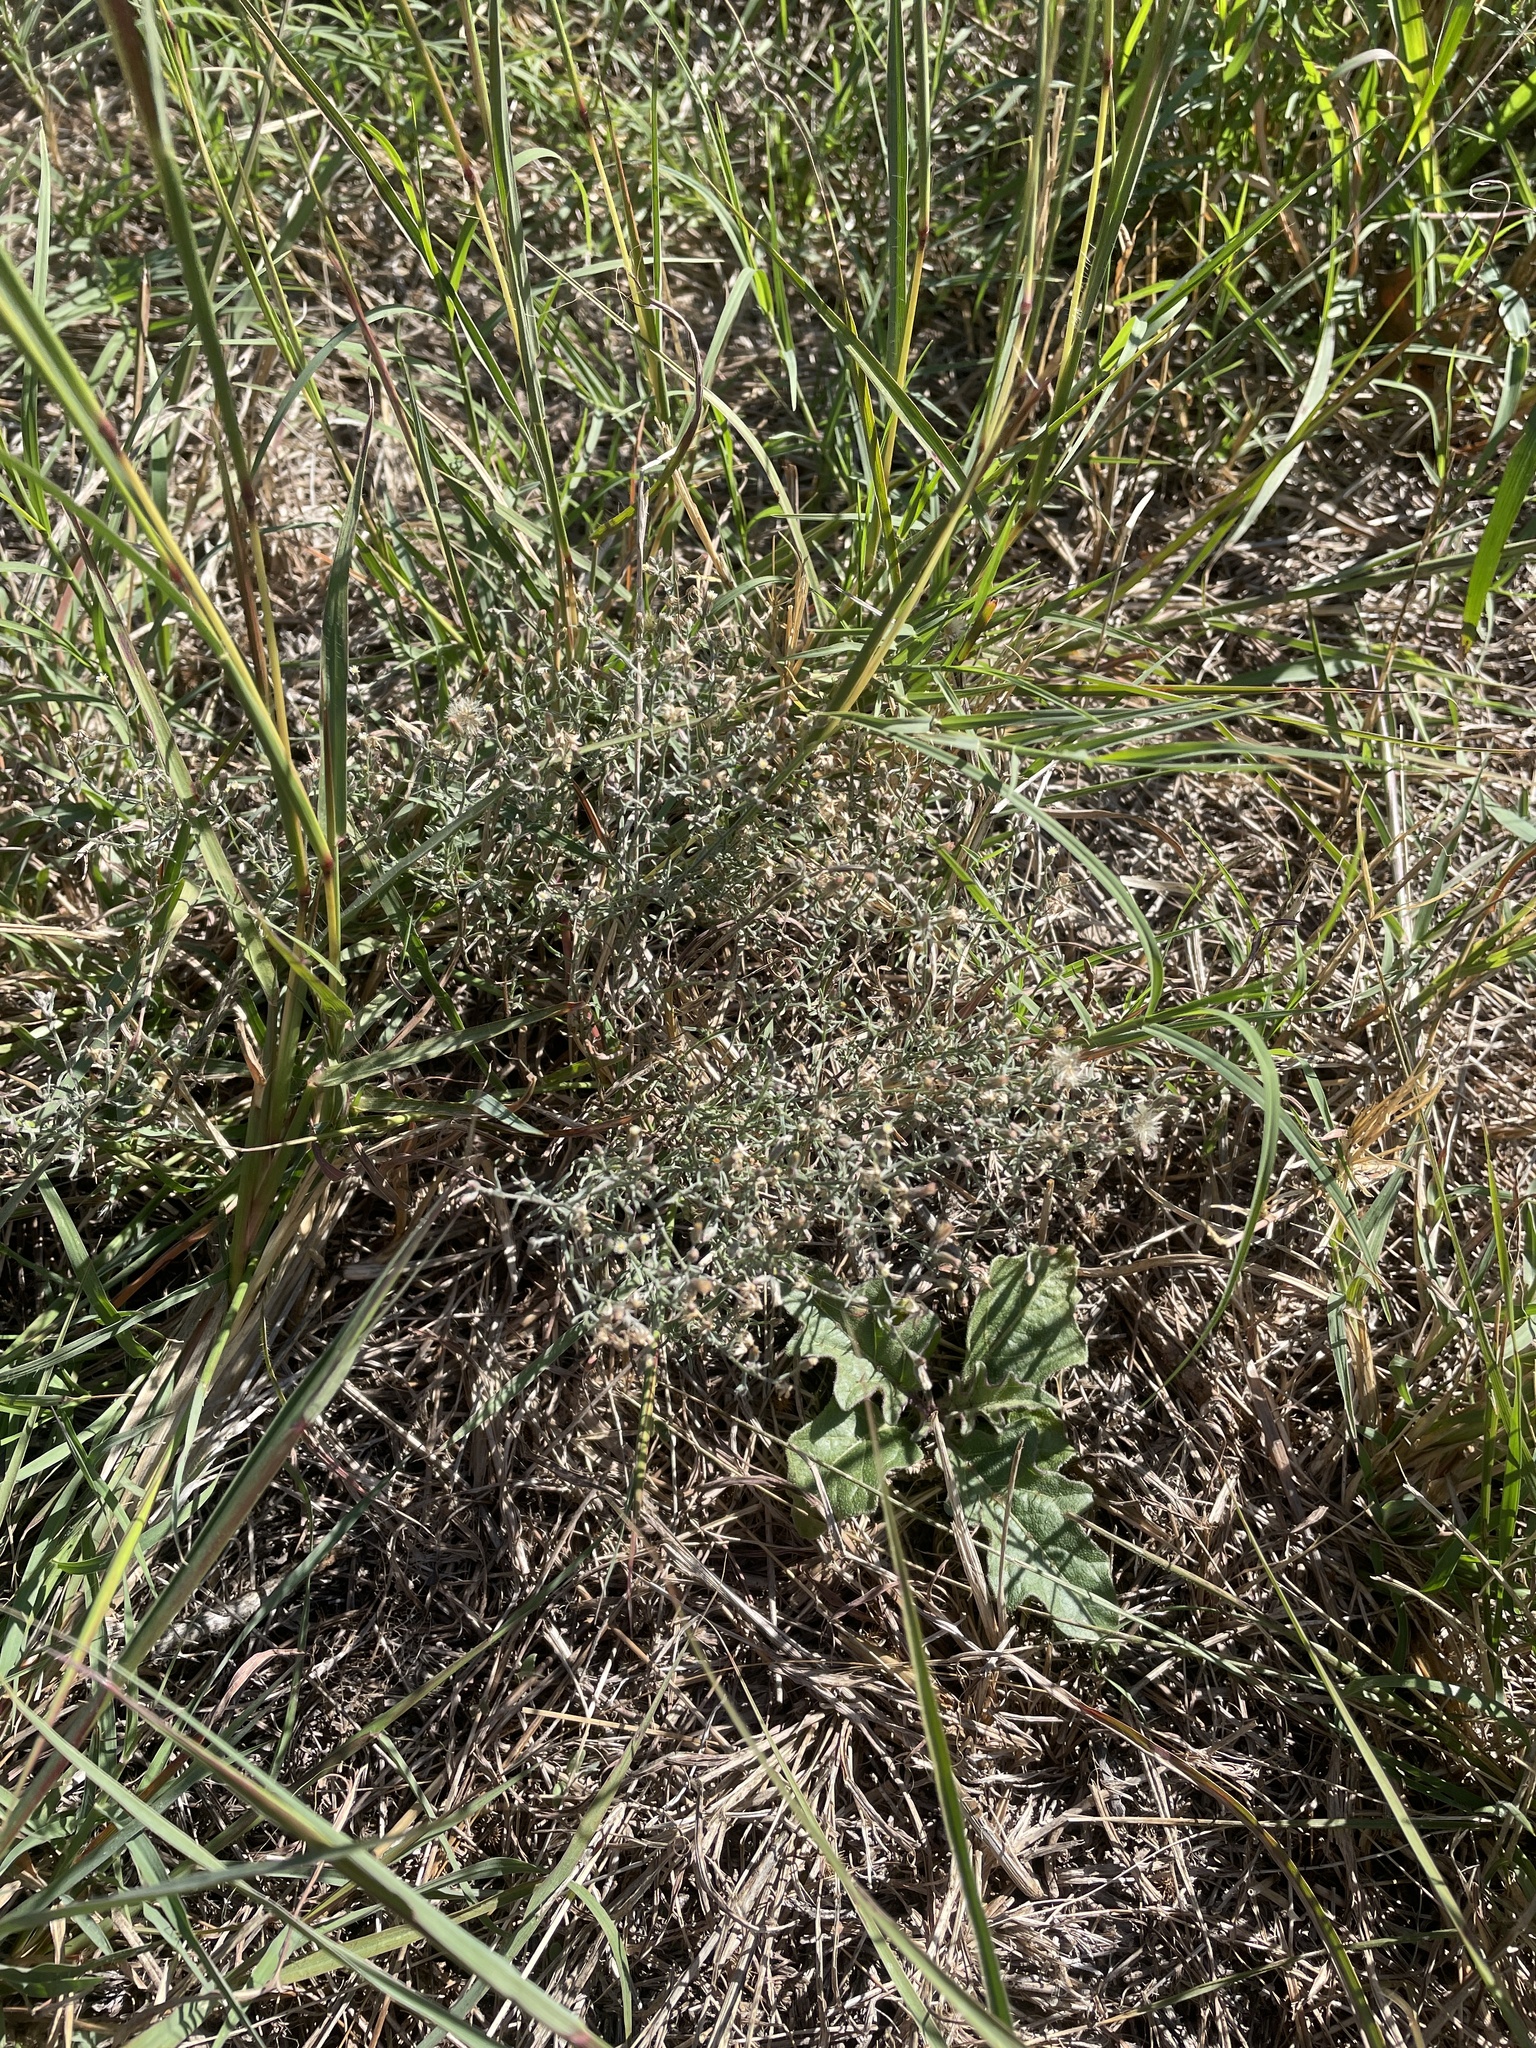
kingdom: Plantae
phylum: Tracheophyta
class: Magnoliopsida
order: Asterales
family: Asteraceae
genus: Erigeron
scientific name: Erigeron divaricatus
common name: Dwarf conyza
